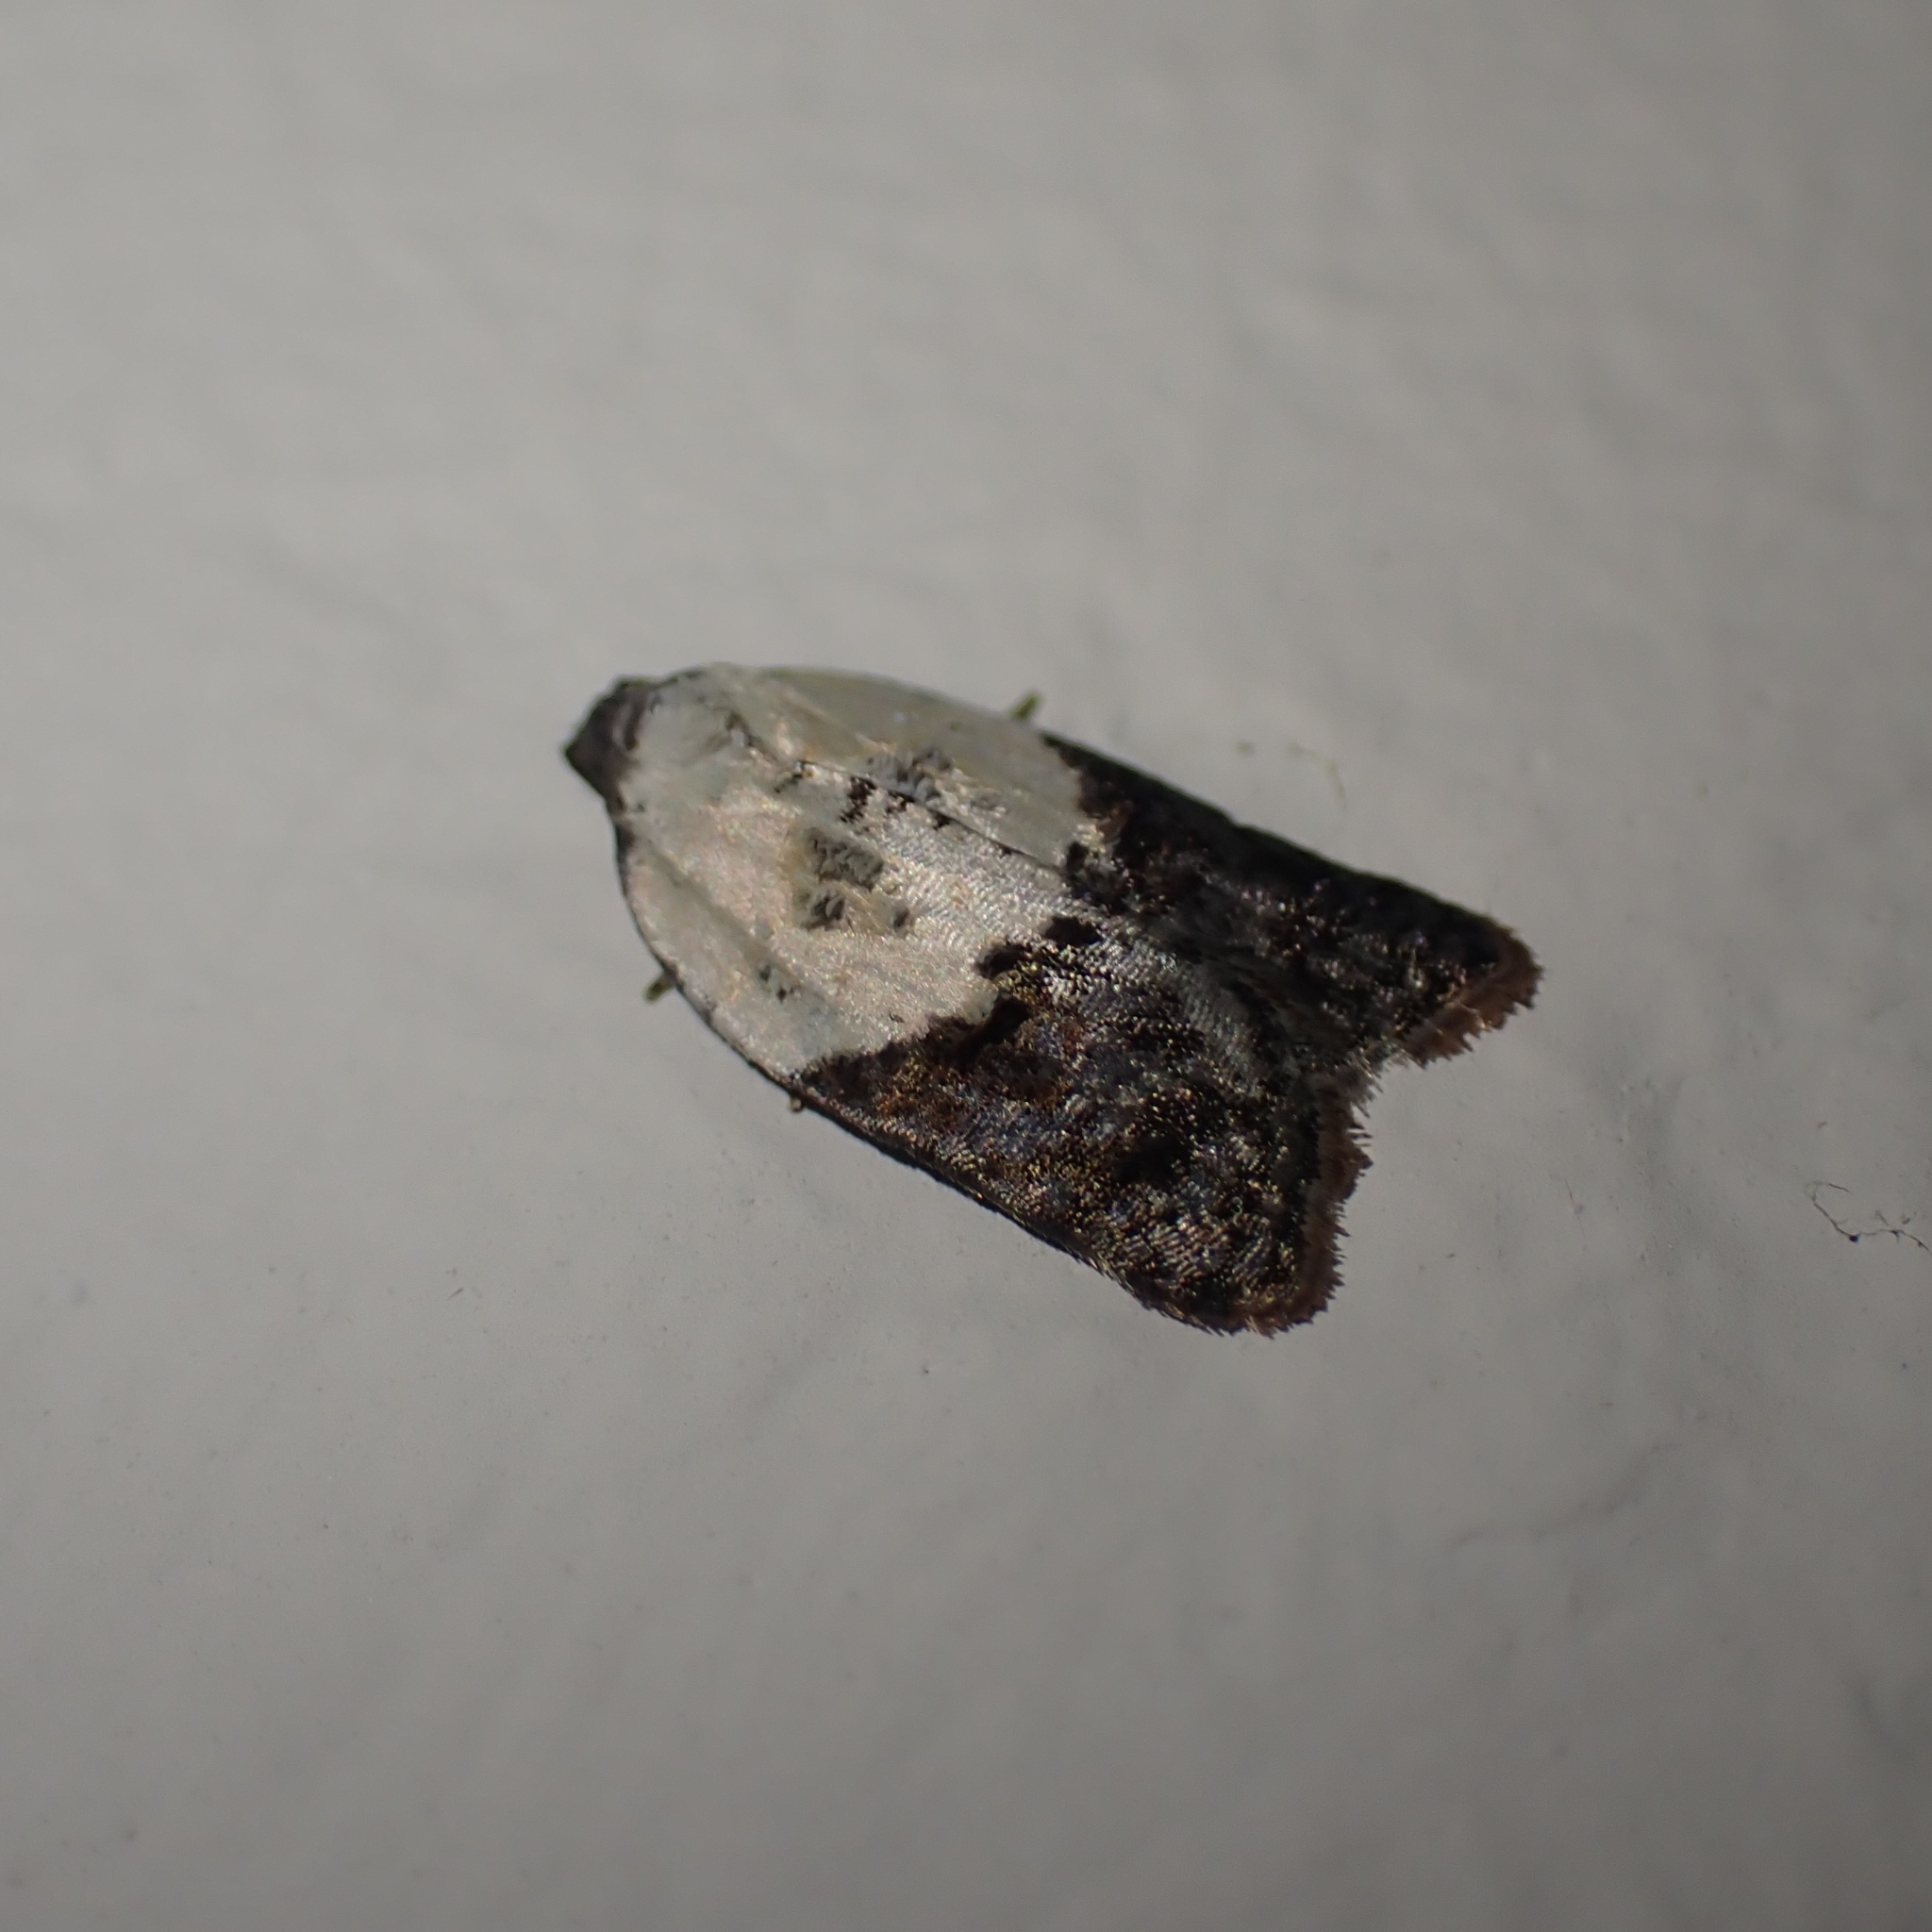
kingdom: Animalia
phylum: Arthropoda
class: Insecta
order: Lepidoptera
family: Tortricidae
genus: Acleris
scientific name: Acleris variegana
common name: Garden rose tortrix
